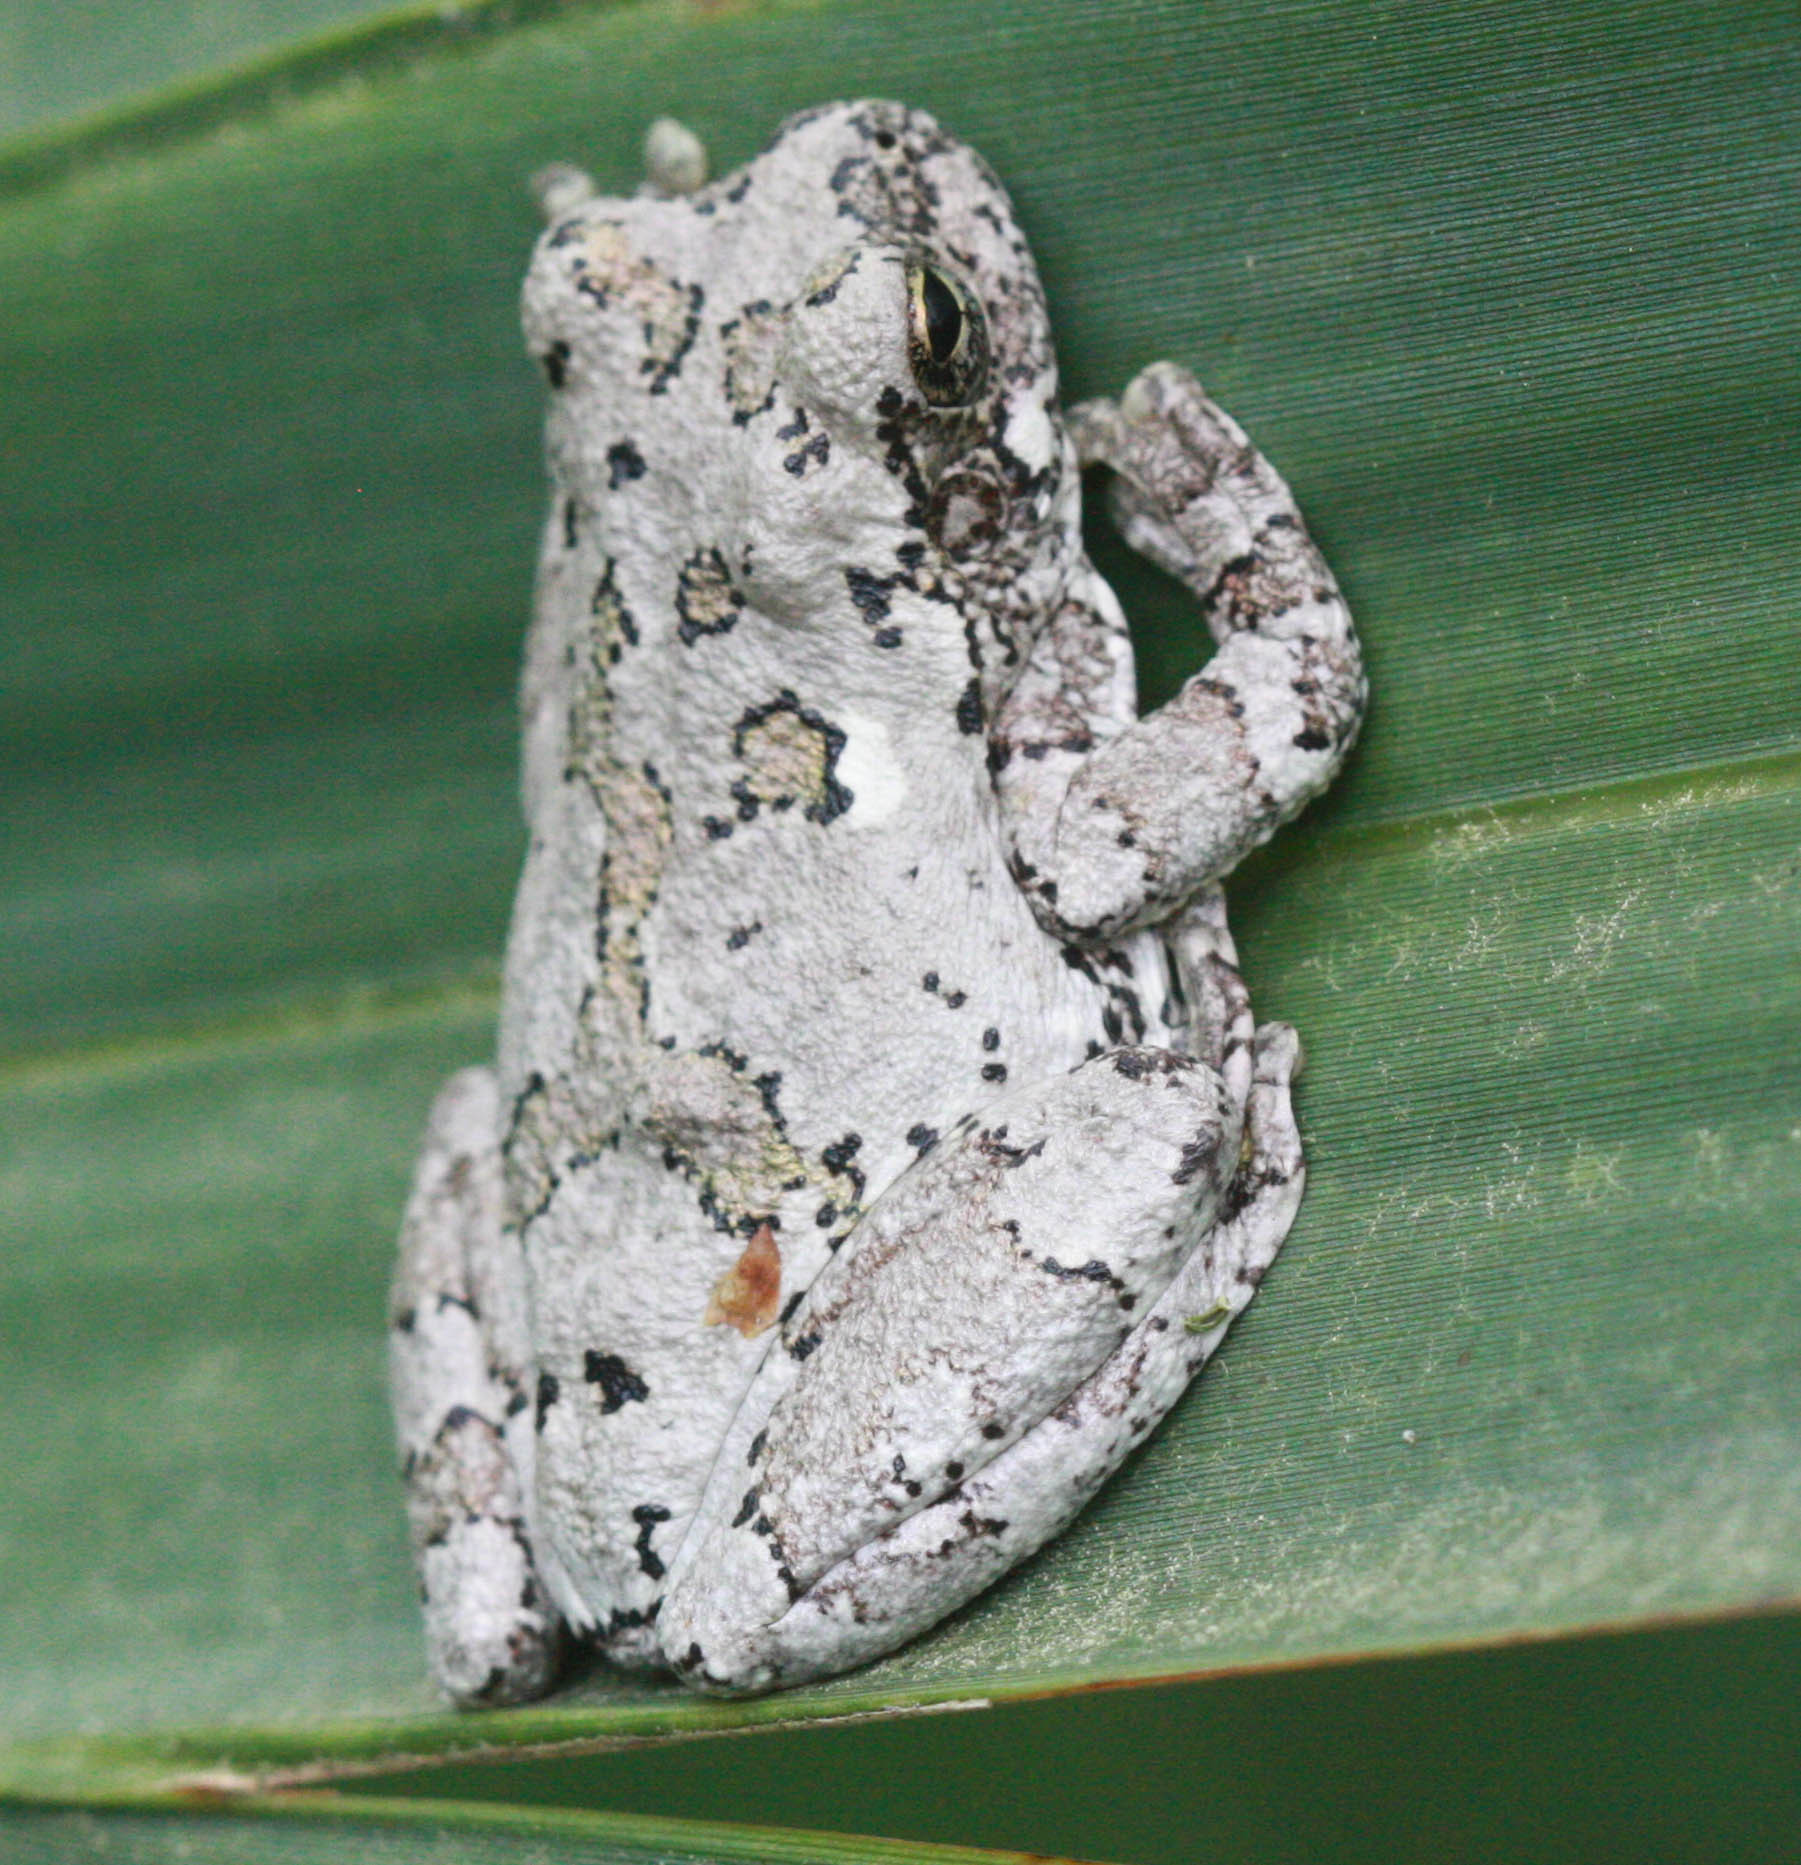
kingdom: Animalia
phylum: Chordata
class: Amphibia
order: Anura
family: Hylidae
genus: Hyla
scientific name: Hyla
